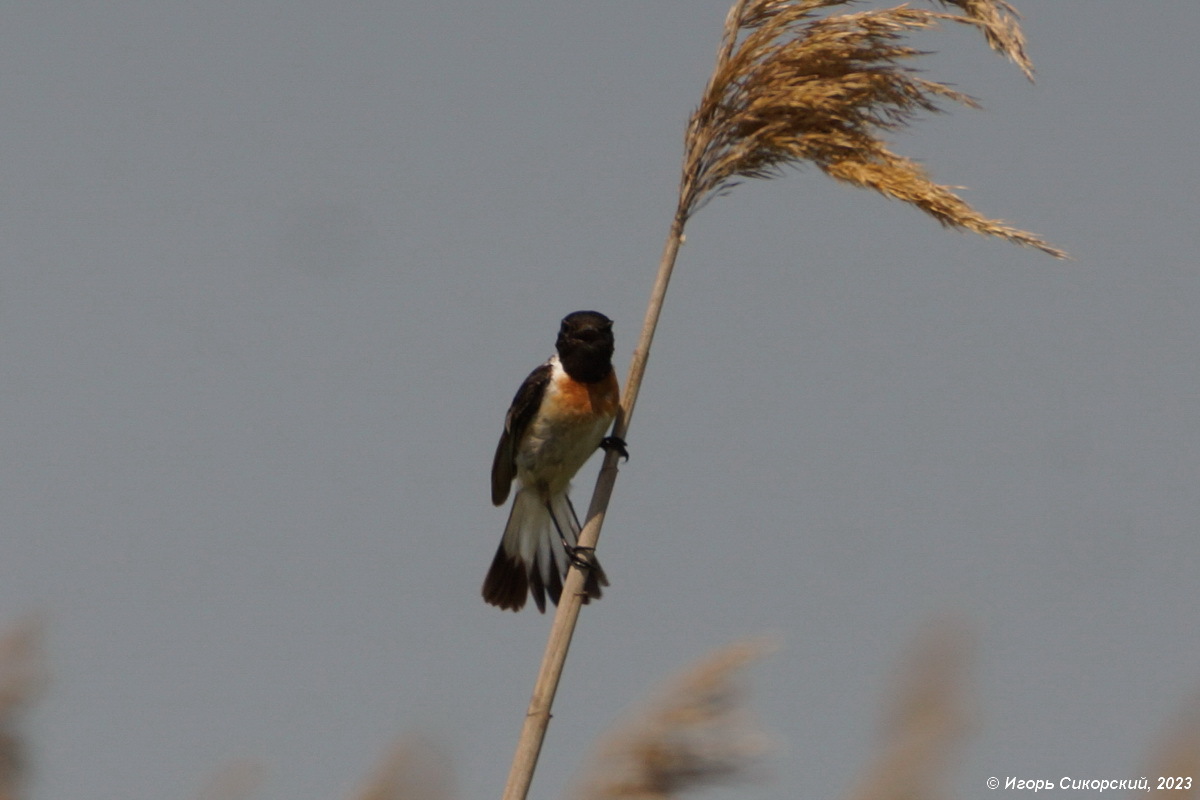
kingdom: Animalia
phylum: Chordata
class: Aves
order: Passeriformes
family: Muscicapidae
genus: Saxicola
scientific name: Saxicola maurus
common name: Siberian stonechat
